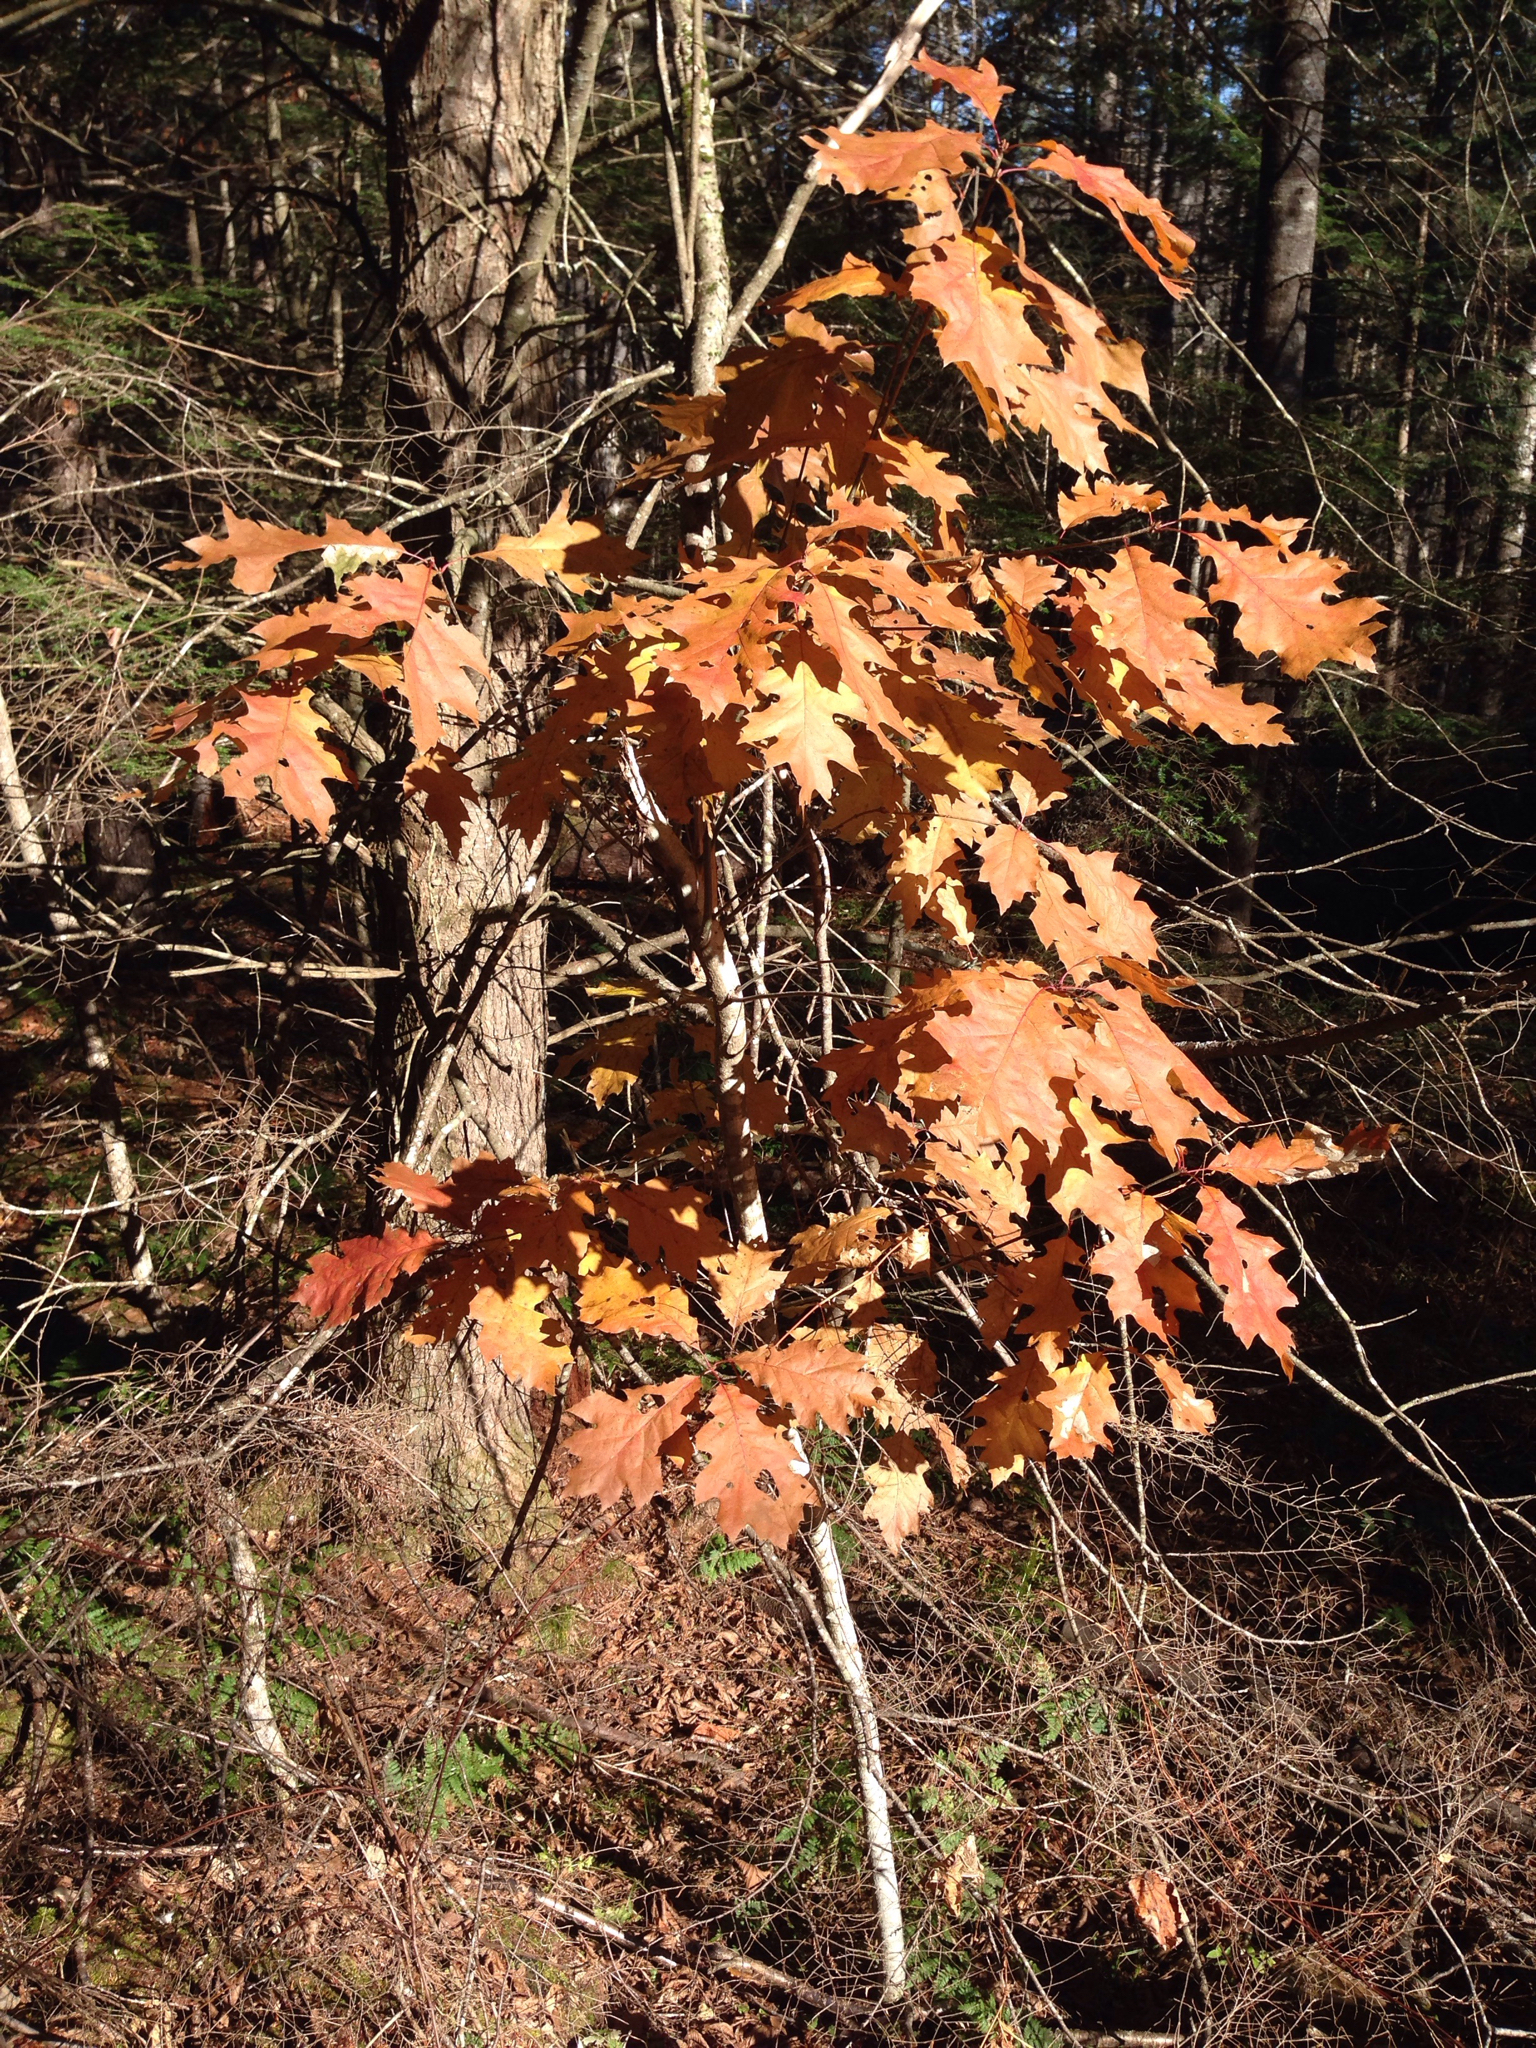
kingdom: Plantae
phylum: Tracheophyta
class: Magnoliopsida
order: Fagales
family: Fagaceae
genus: Quercus
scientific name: Quercus rubra
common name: Red oak
